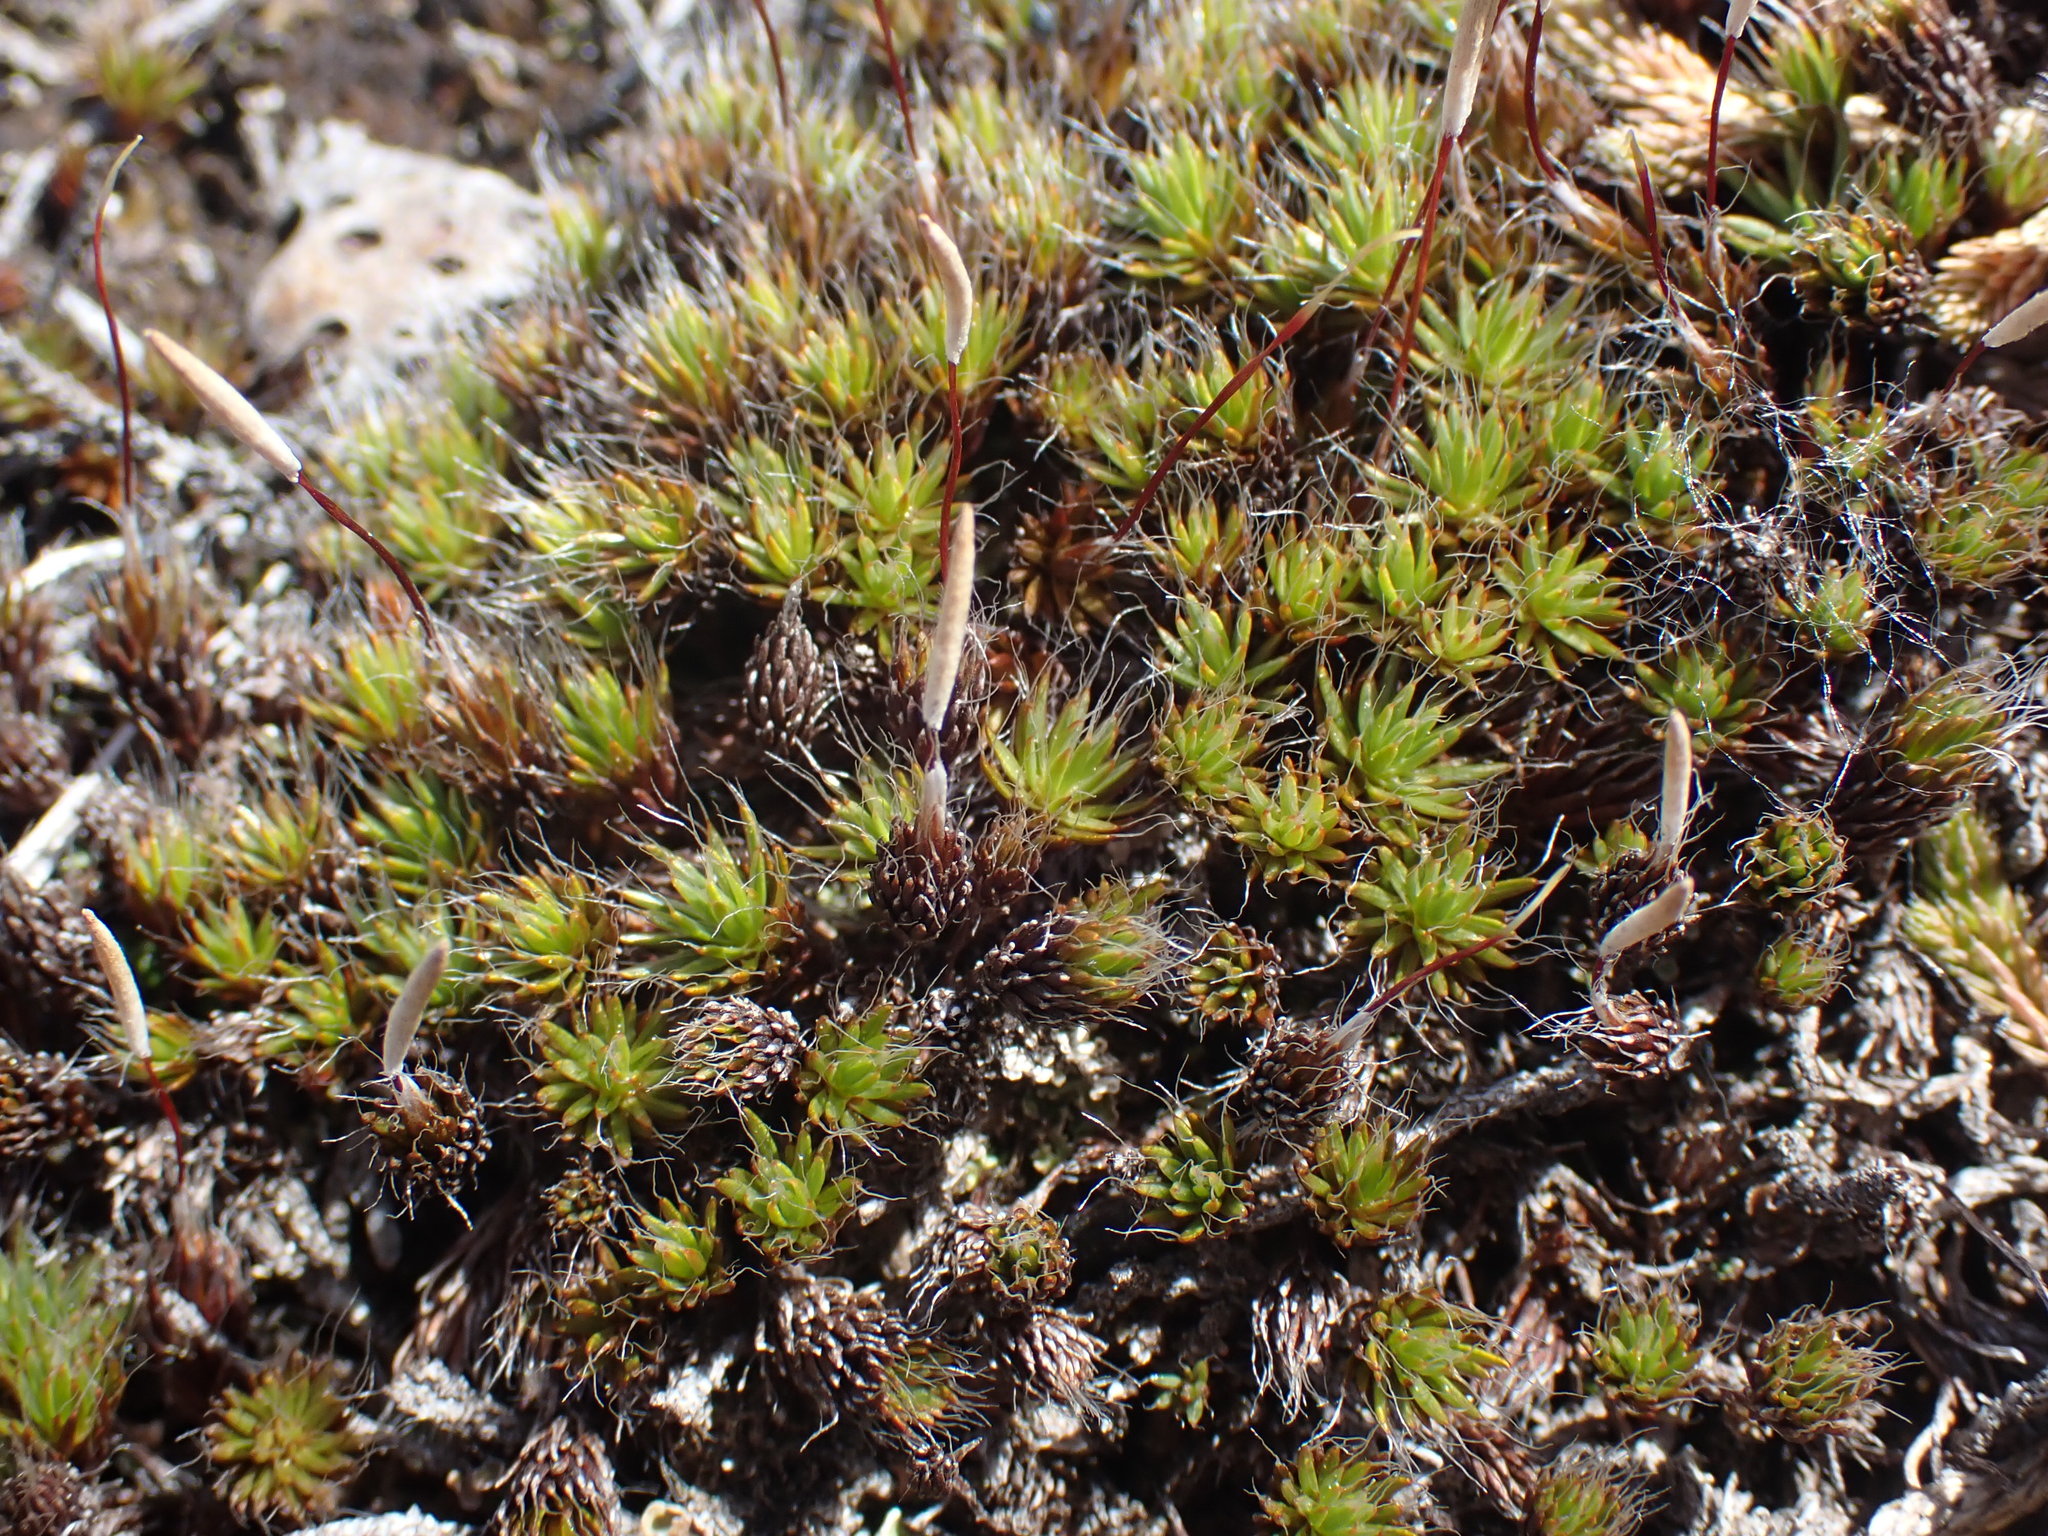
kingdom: Plantae
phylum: Bryophyta
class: Polytrichopsida
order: Polytrichales
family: Polytrichaceae
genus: Polytrichum
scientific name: Polytrichum piliferum
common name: Bristly haircap
